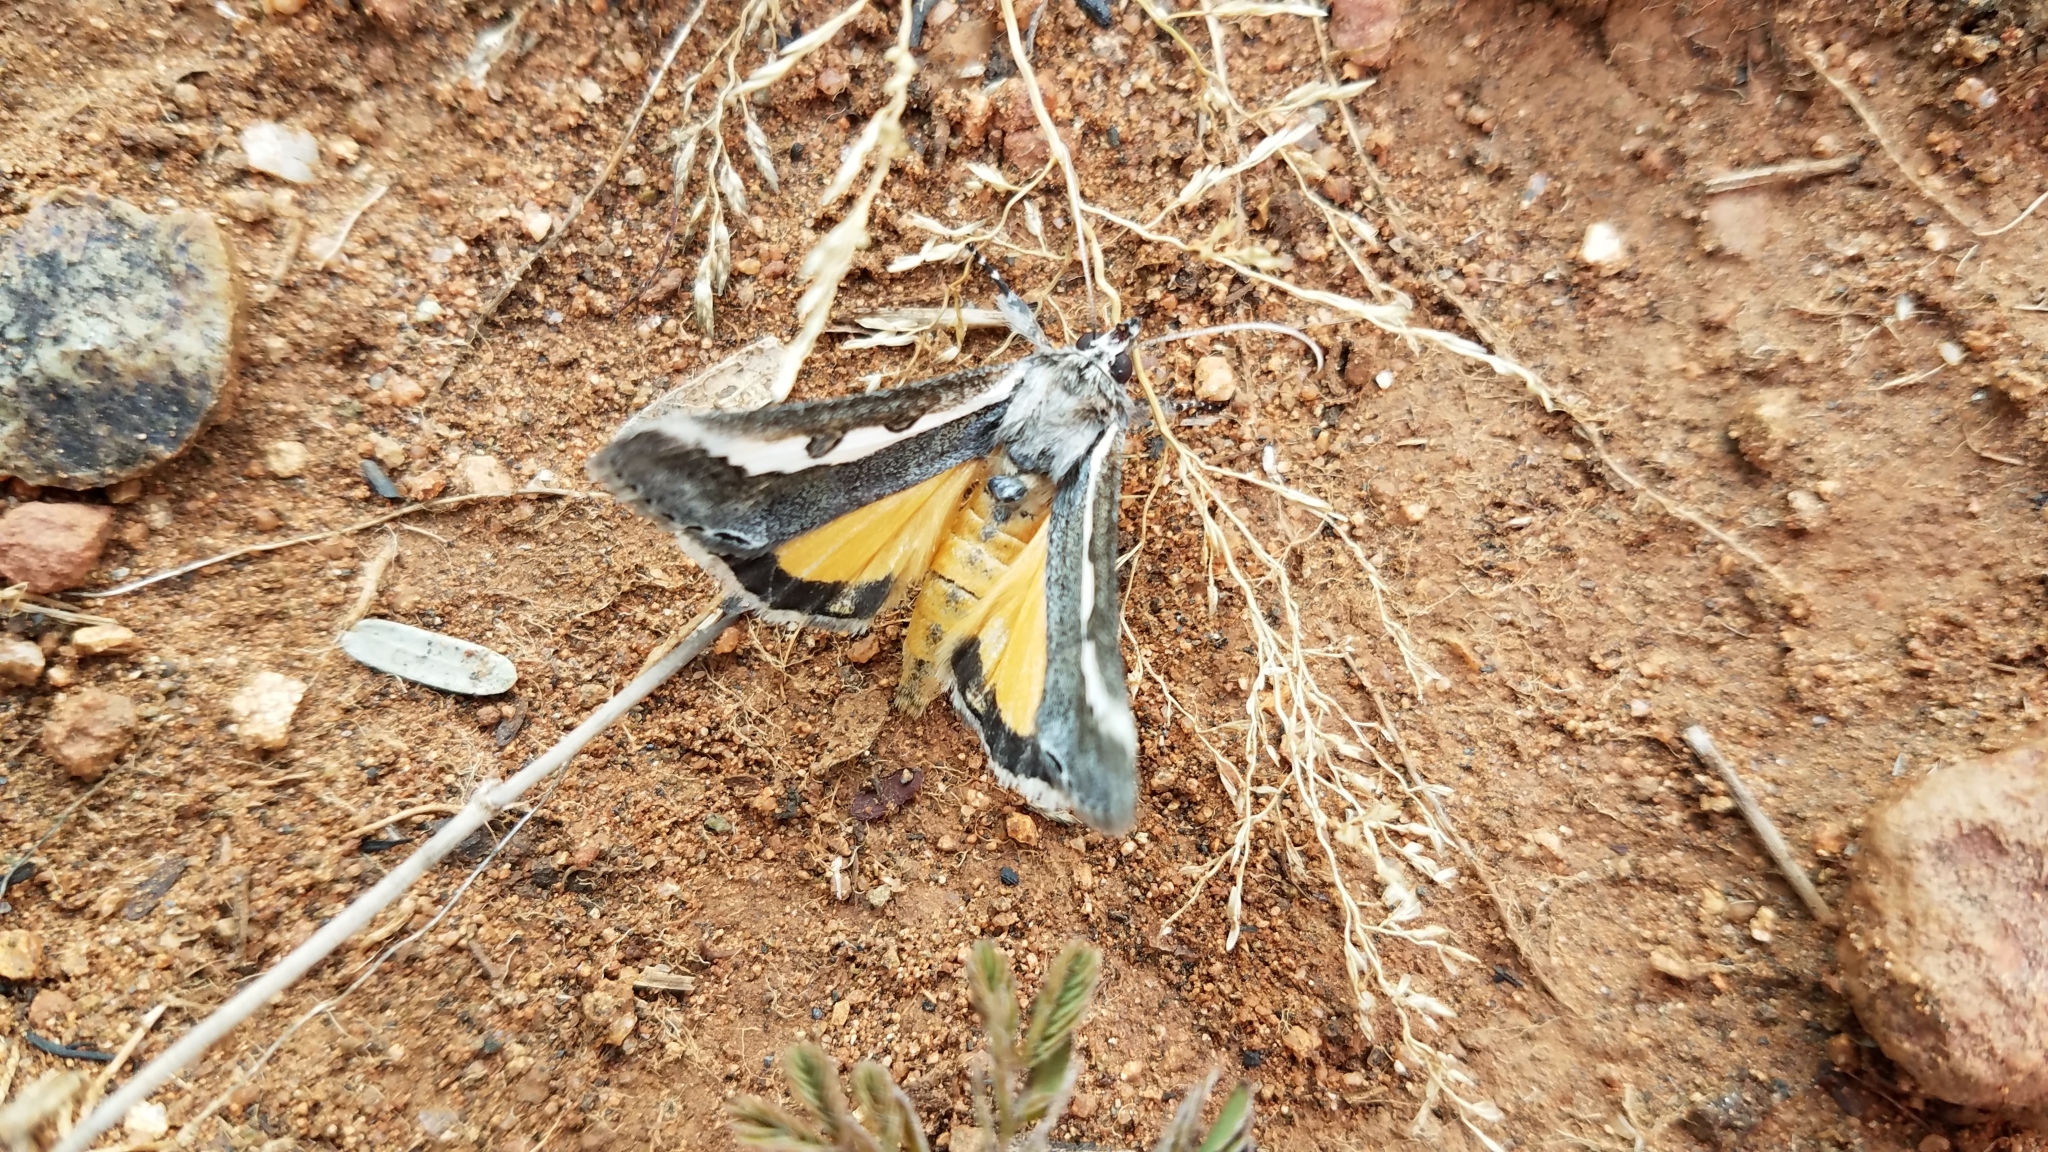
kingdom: Animalia
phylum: Arthropoda
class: Insecta
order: Lepidoptera
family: Noctuidae
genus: Euscirrhopterus
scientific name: Euscirrhopterus gloveri
